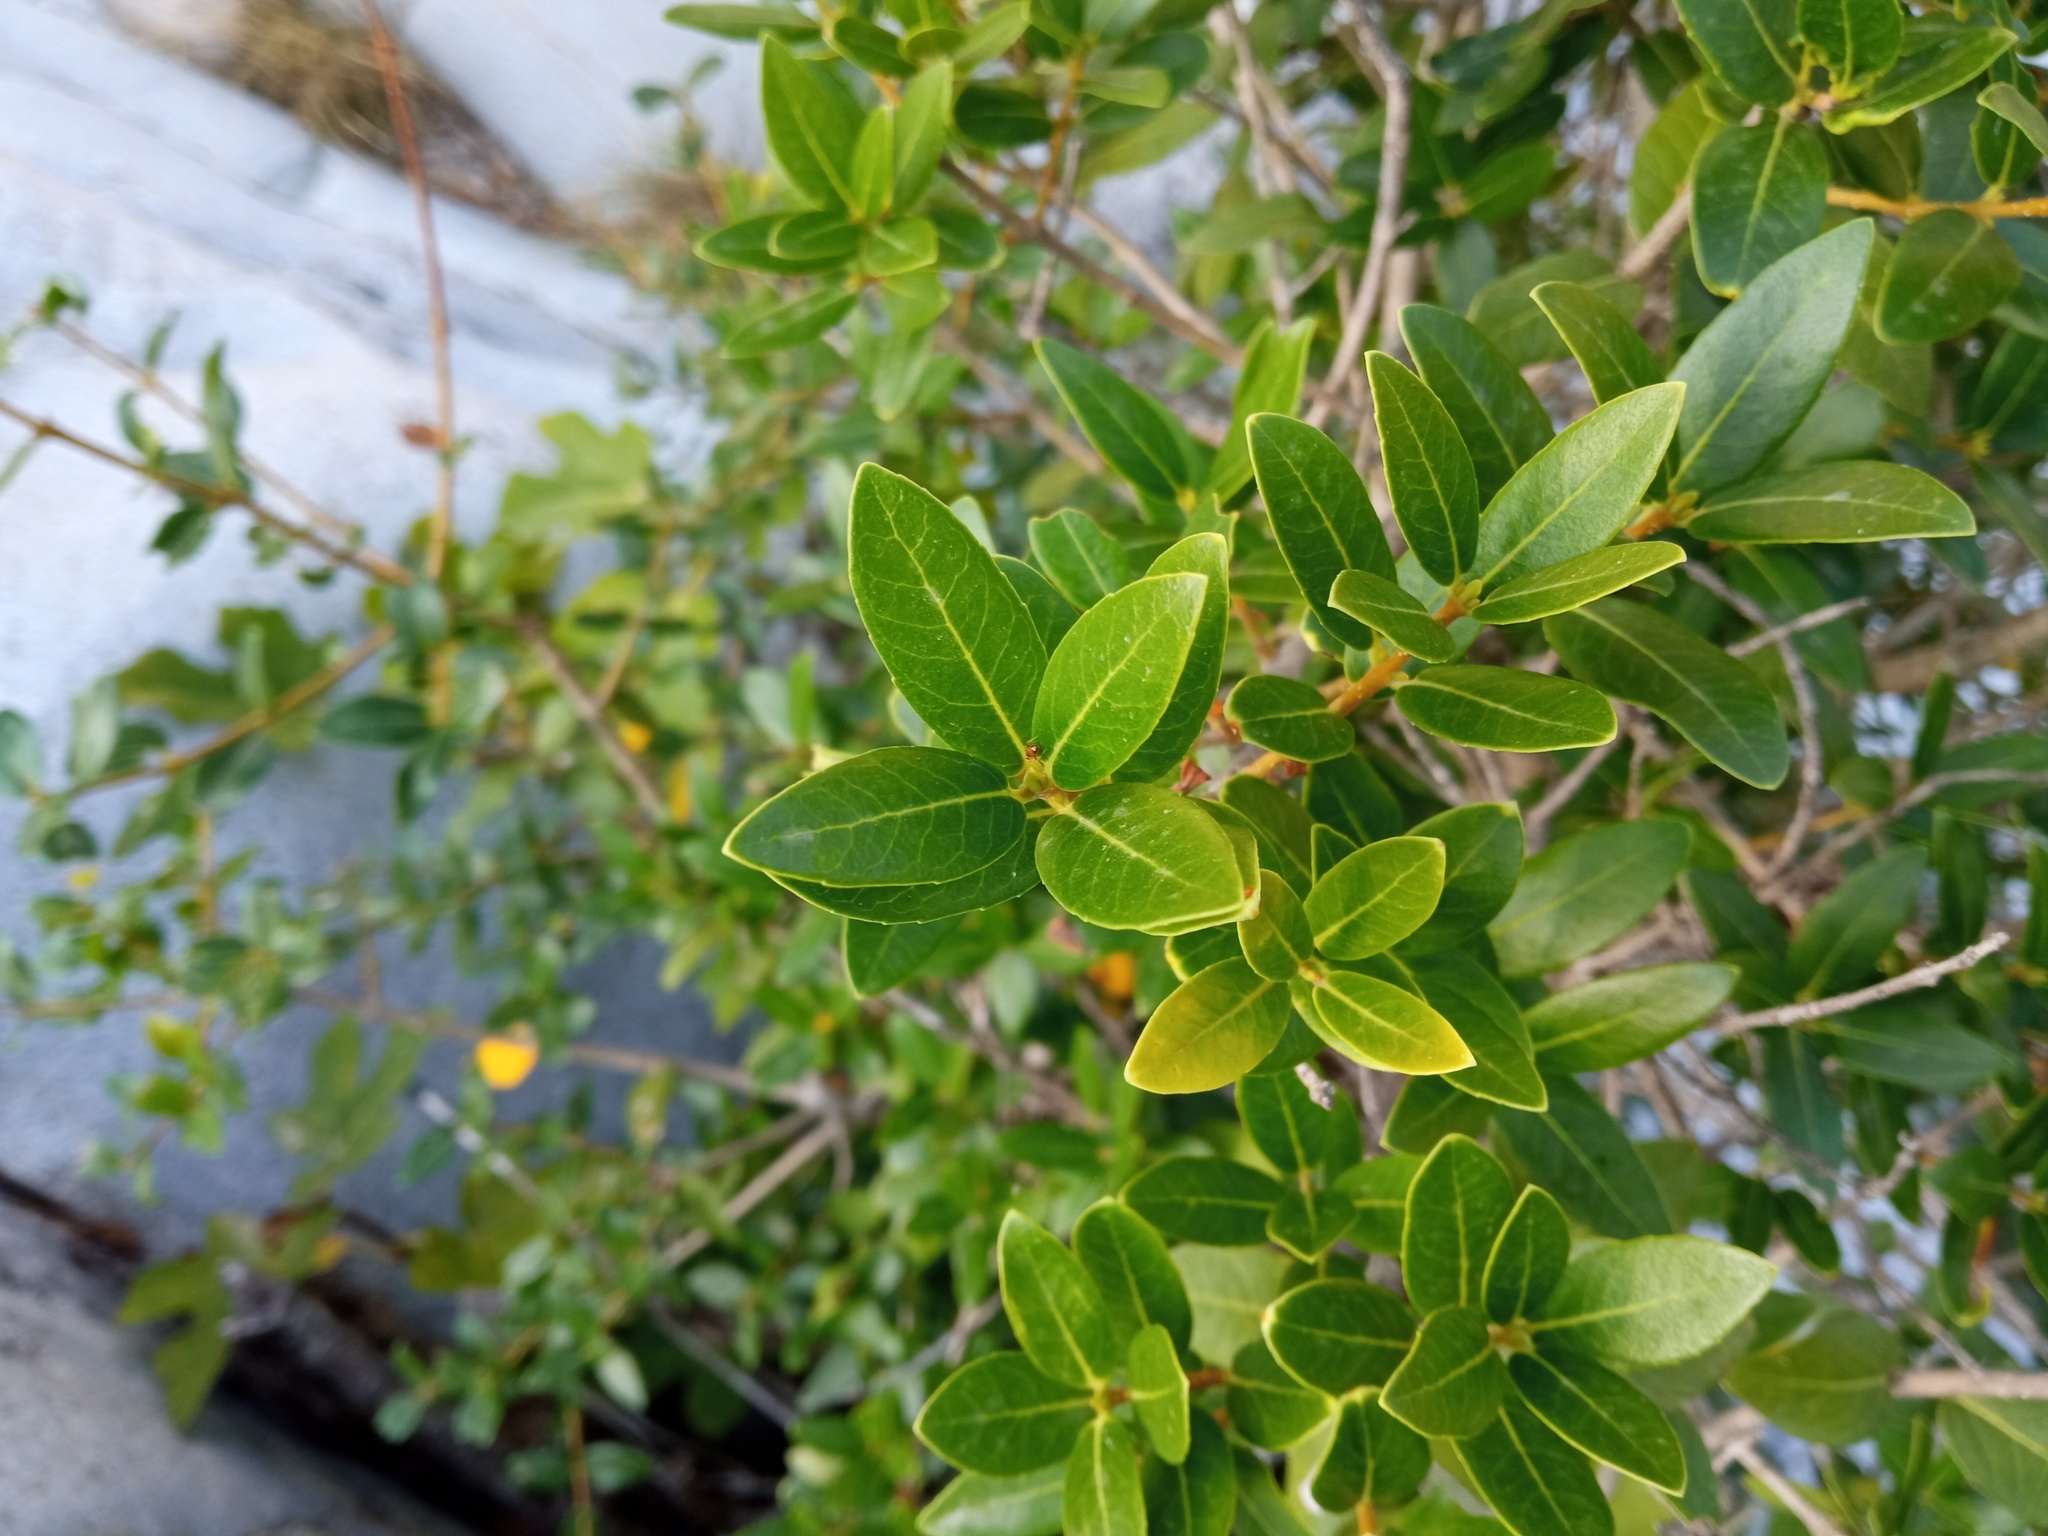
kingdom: Plantae
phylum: Tracheophyta
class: Magnoliopsida
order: Lamiales
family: Oleaceae
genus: Phillyrea
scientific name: Phillyrea latifolia
